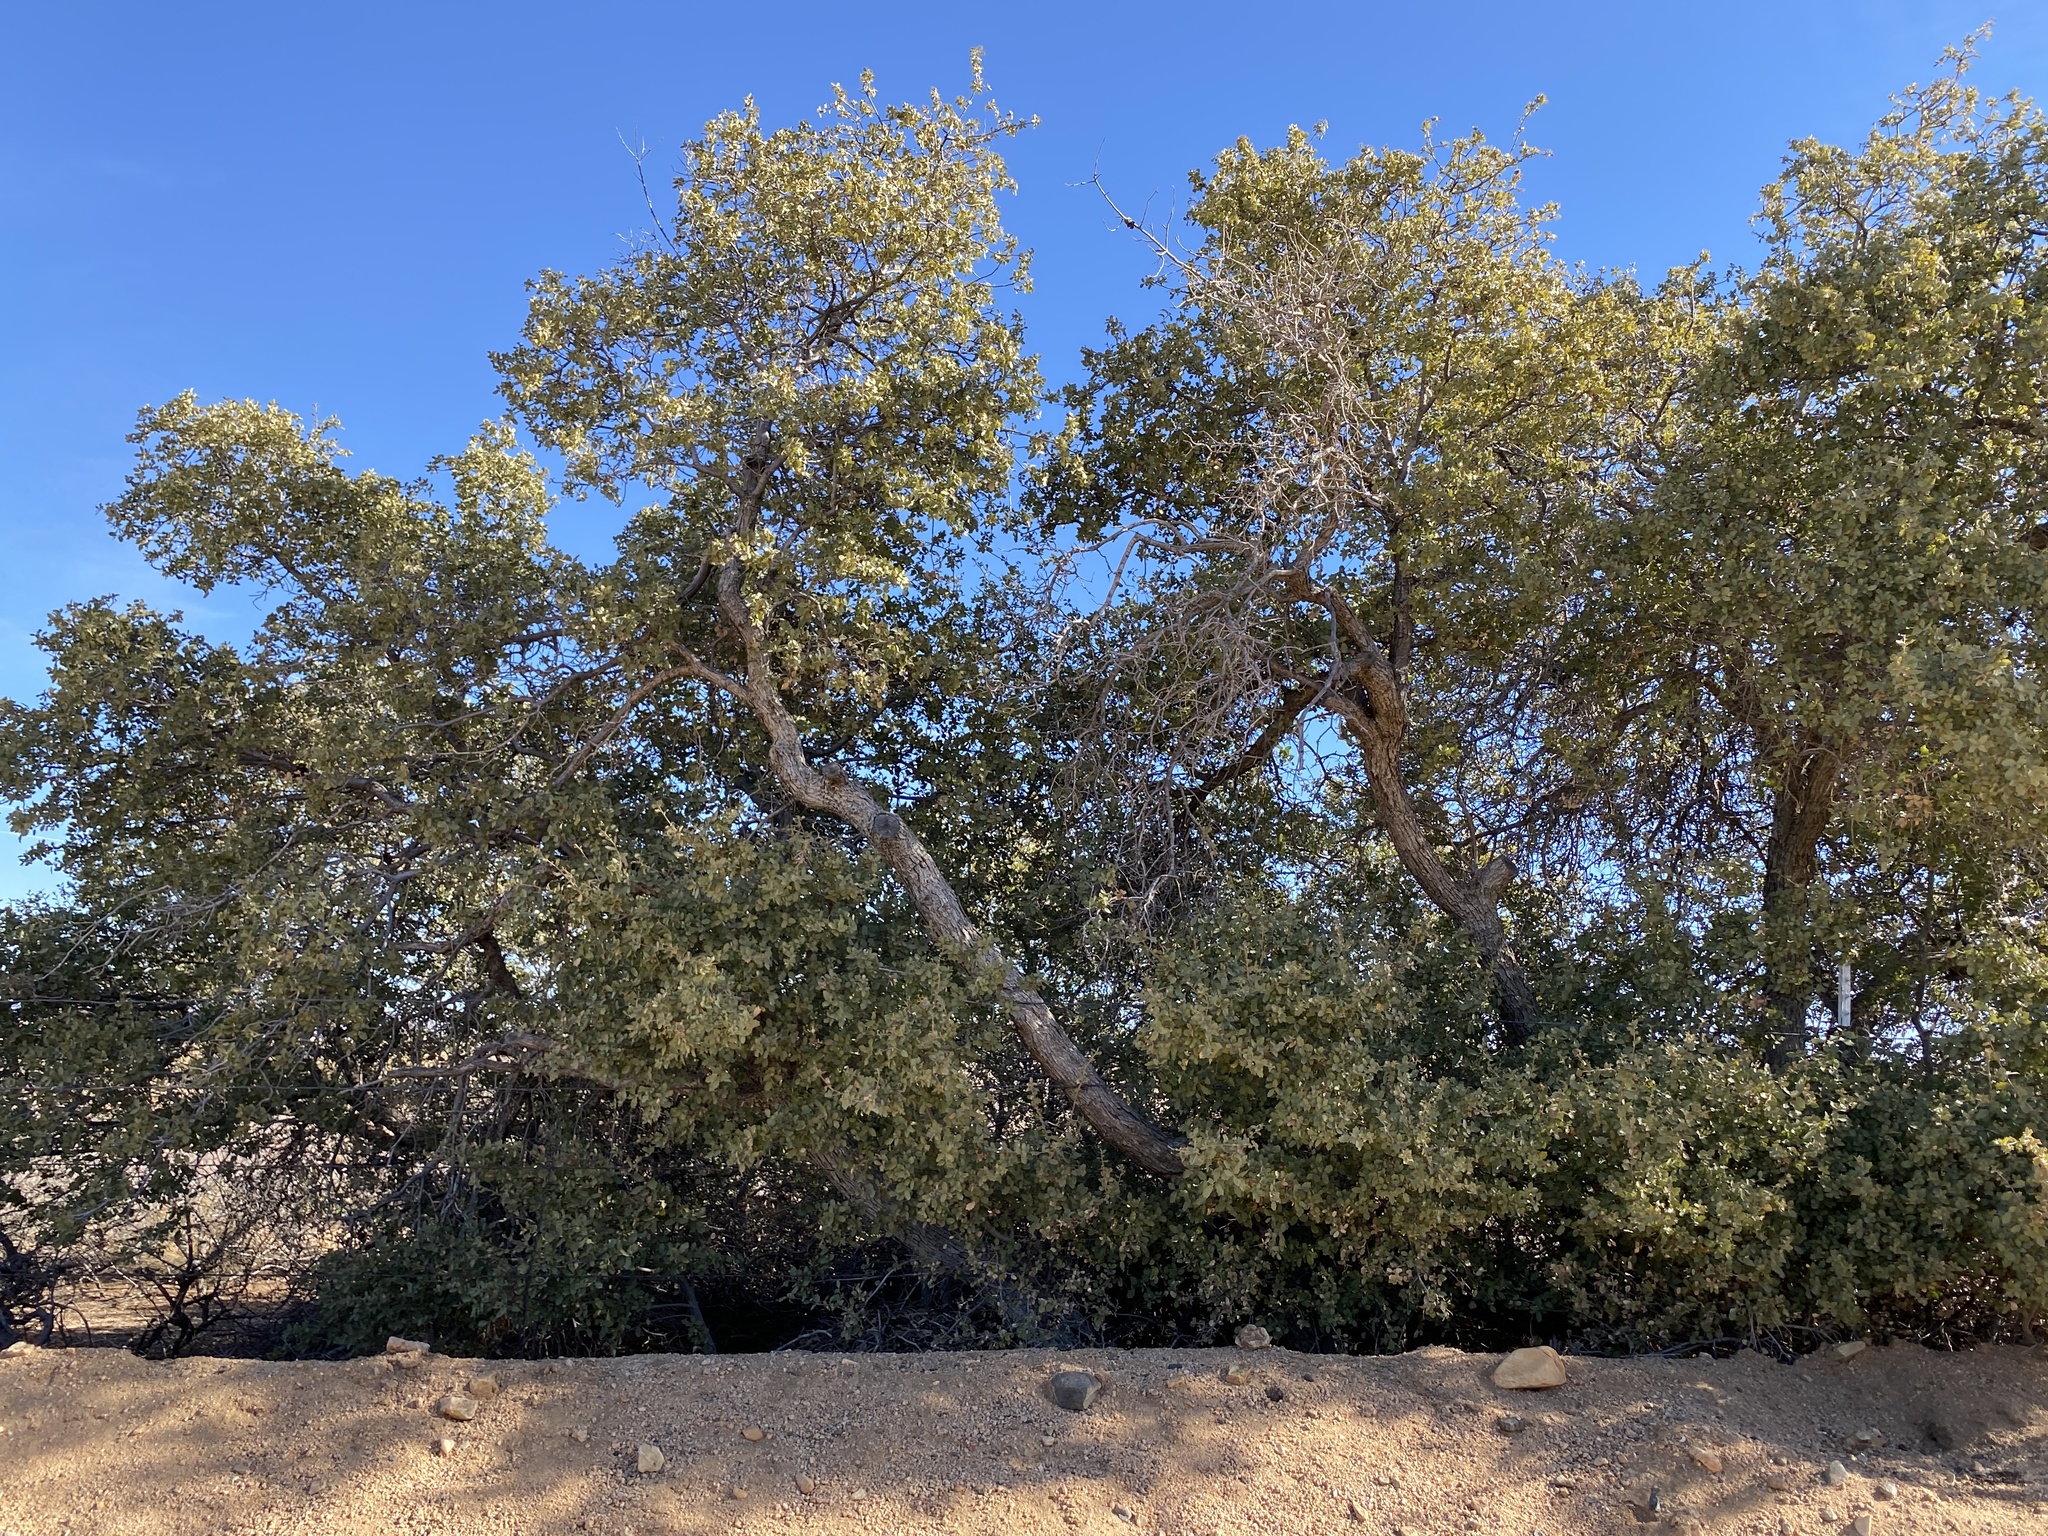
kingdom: Plantae
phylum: Tracheophyta
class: Magnoliopsida
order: Fagales
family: Fagaceae
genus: Quercus
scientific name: Quercus palmeri
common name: Dunn oak
